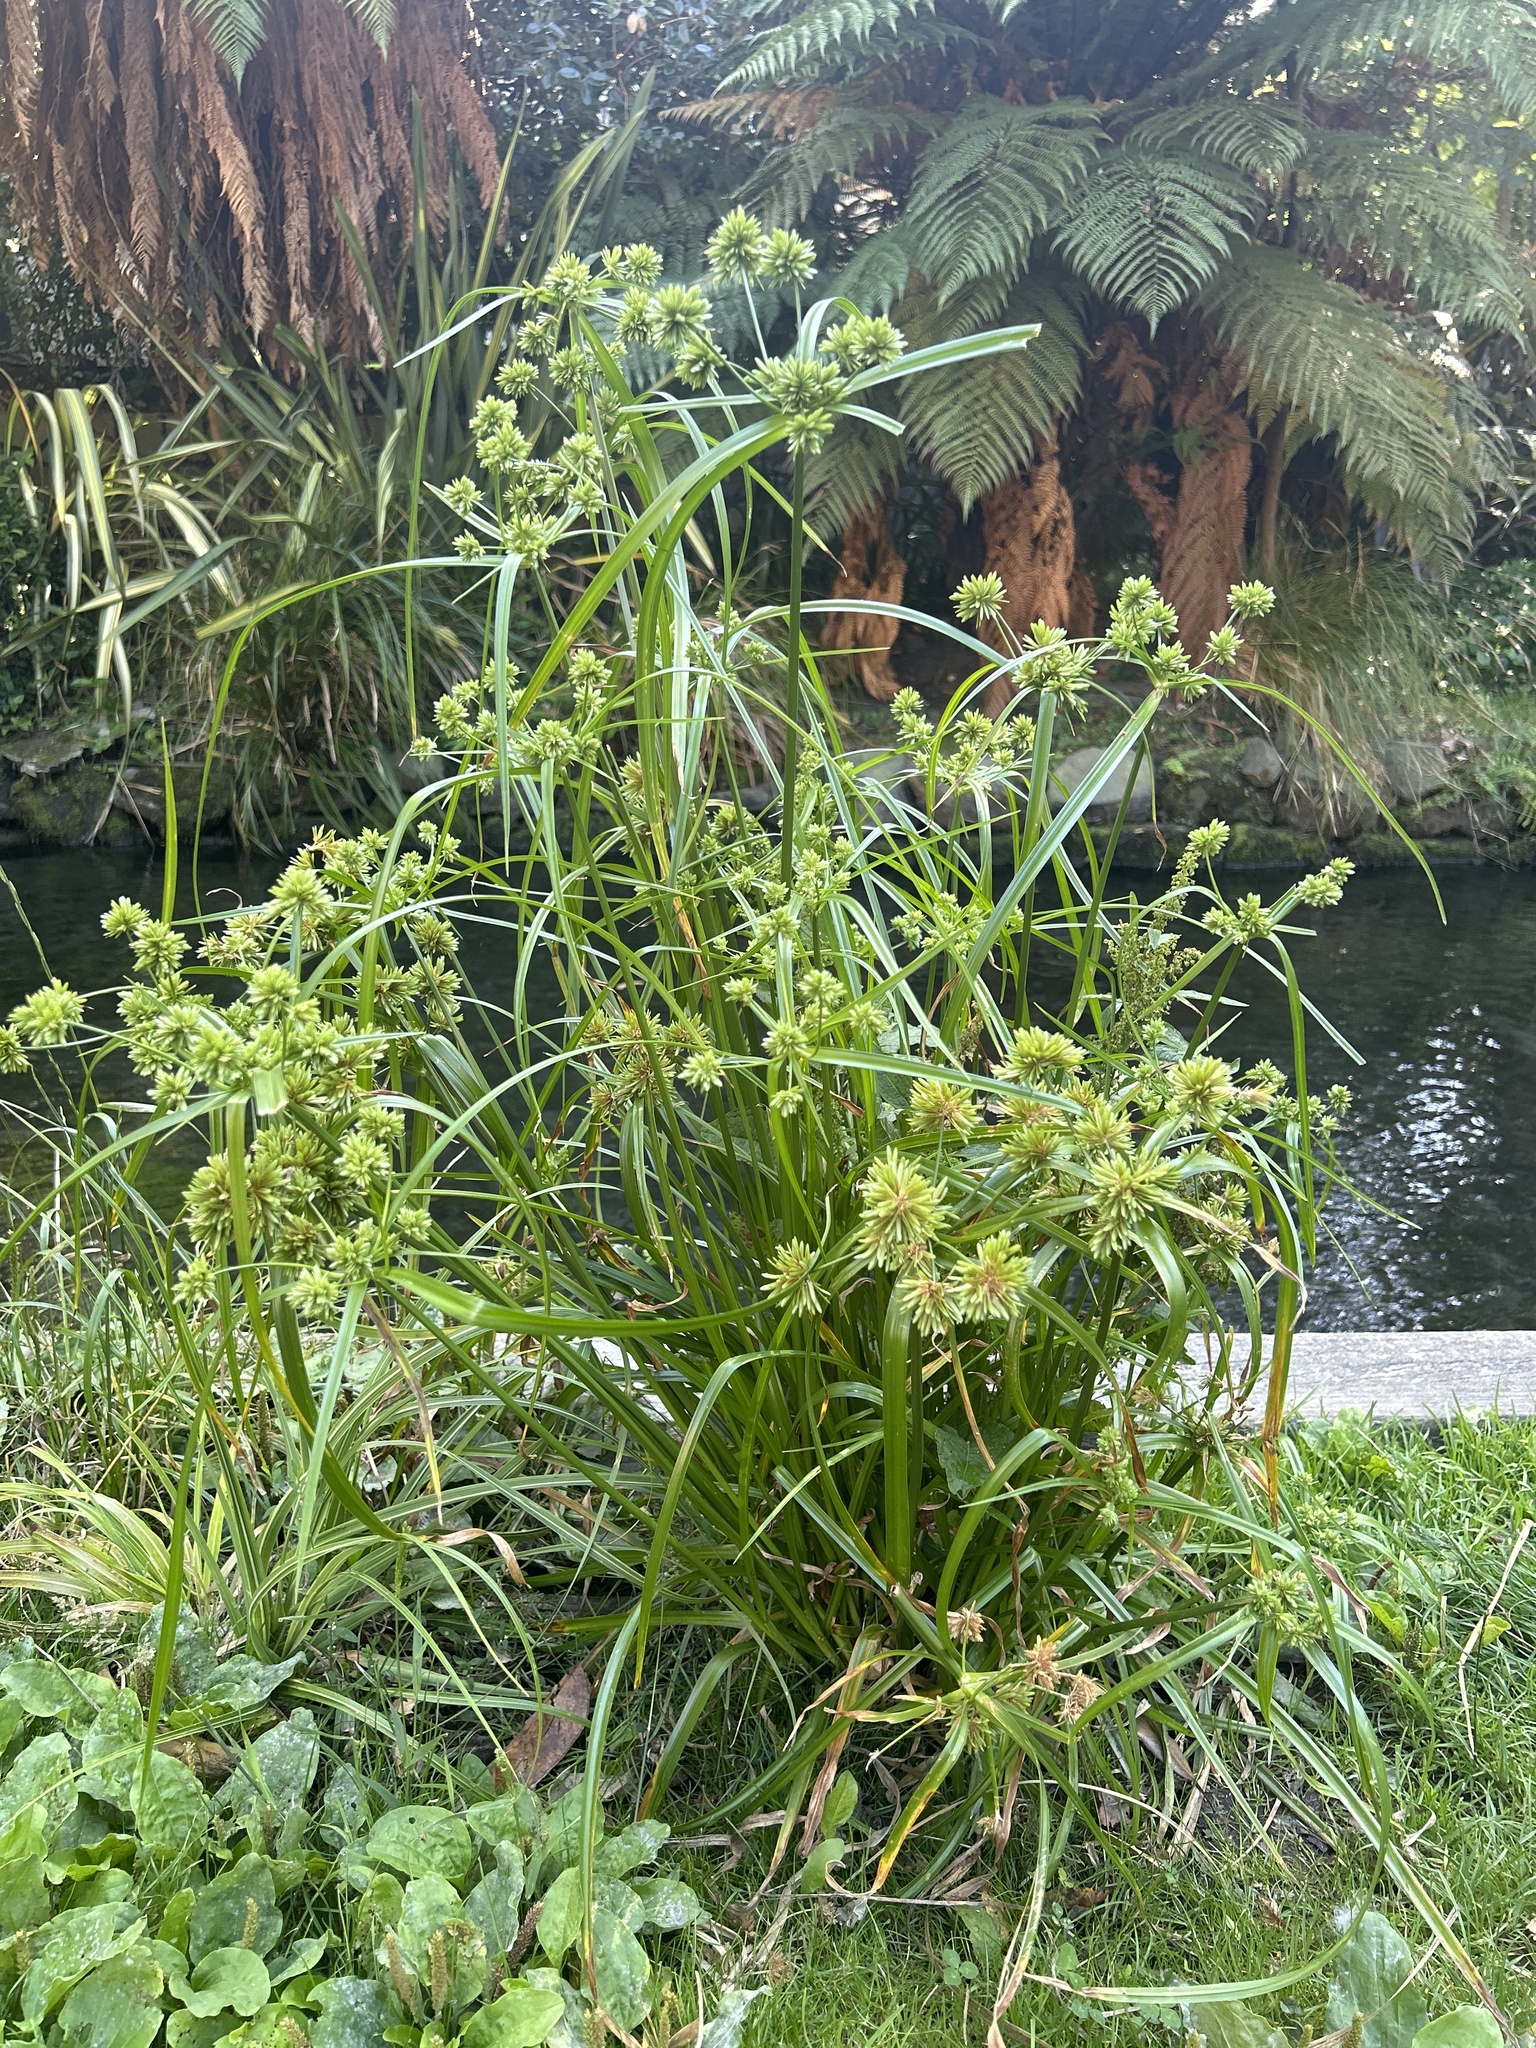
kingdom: Plantae
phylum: Tracheophyta
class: Liliopsida
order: Poales
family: Cyperaceae
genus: Cyperus
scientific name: Cyperus eragrostis
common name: Tall flatsedge
